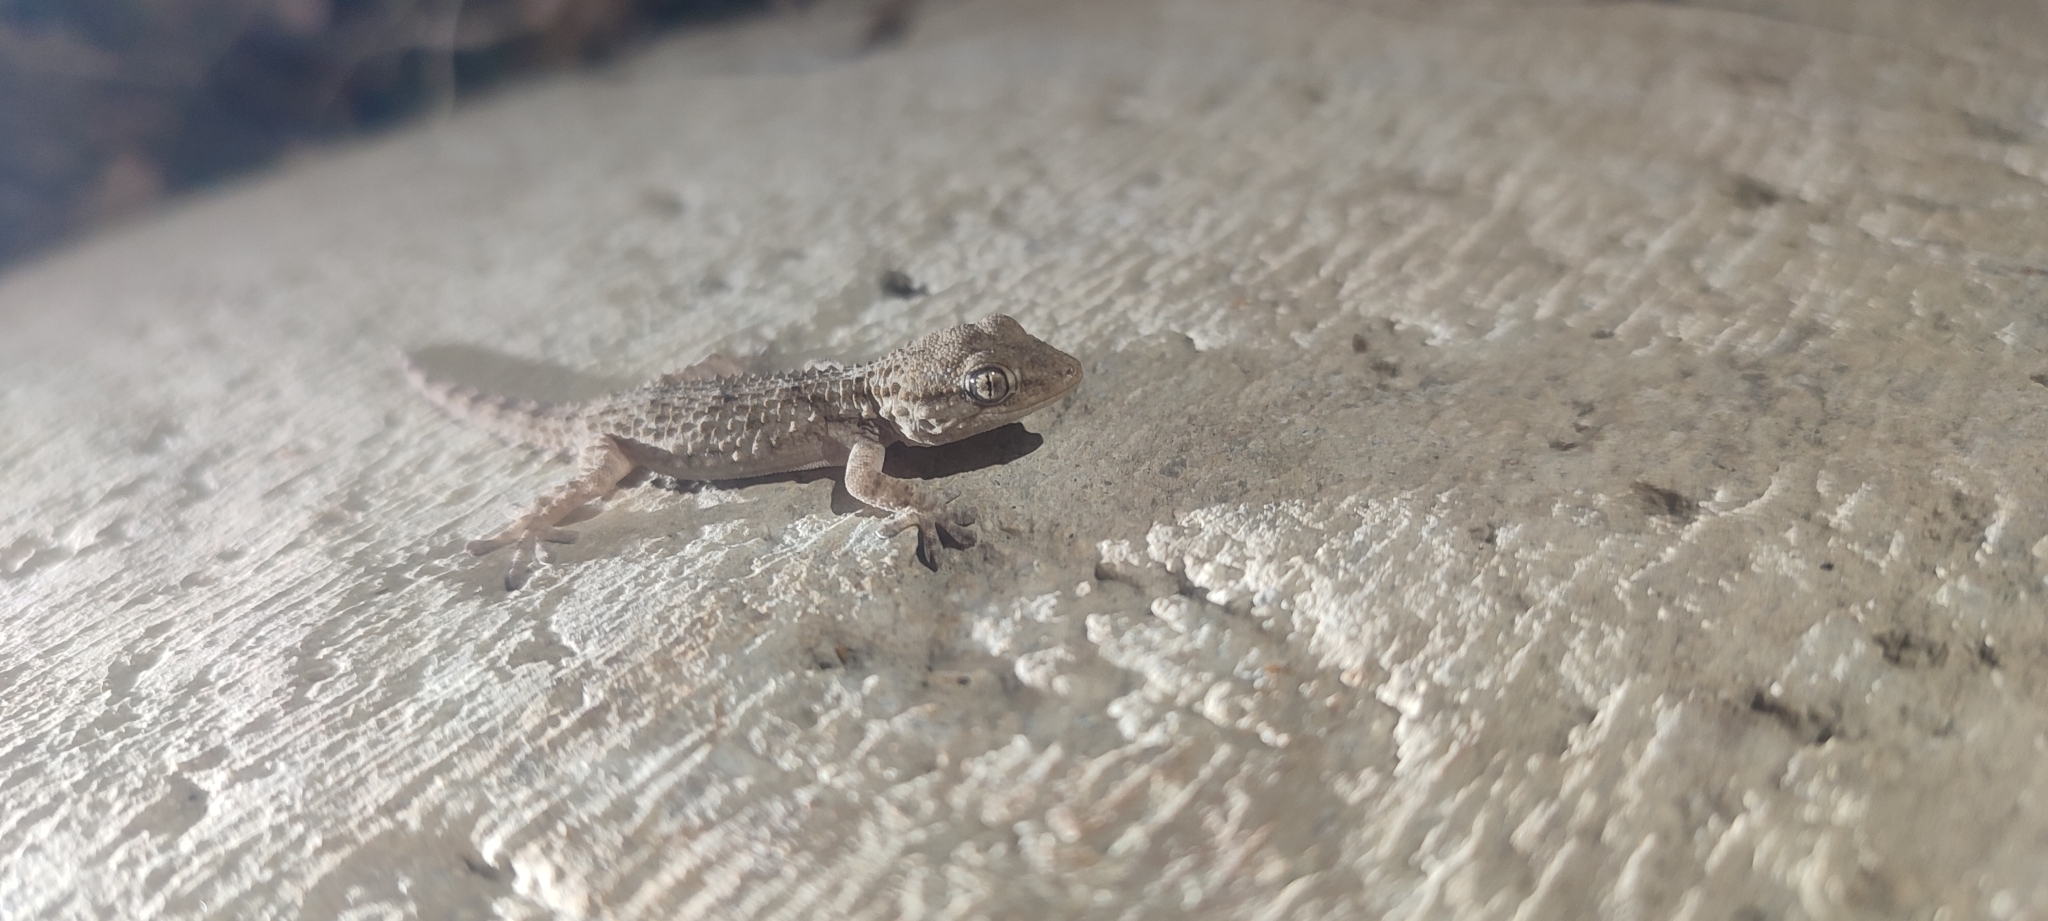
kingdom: Animalia
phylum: Chordata
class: Squamata
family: Phyllodactylidae
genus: Tarentola
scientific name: Tarentola mauritanica
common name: Moorish gecko
